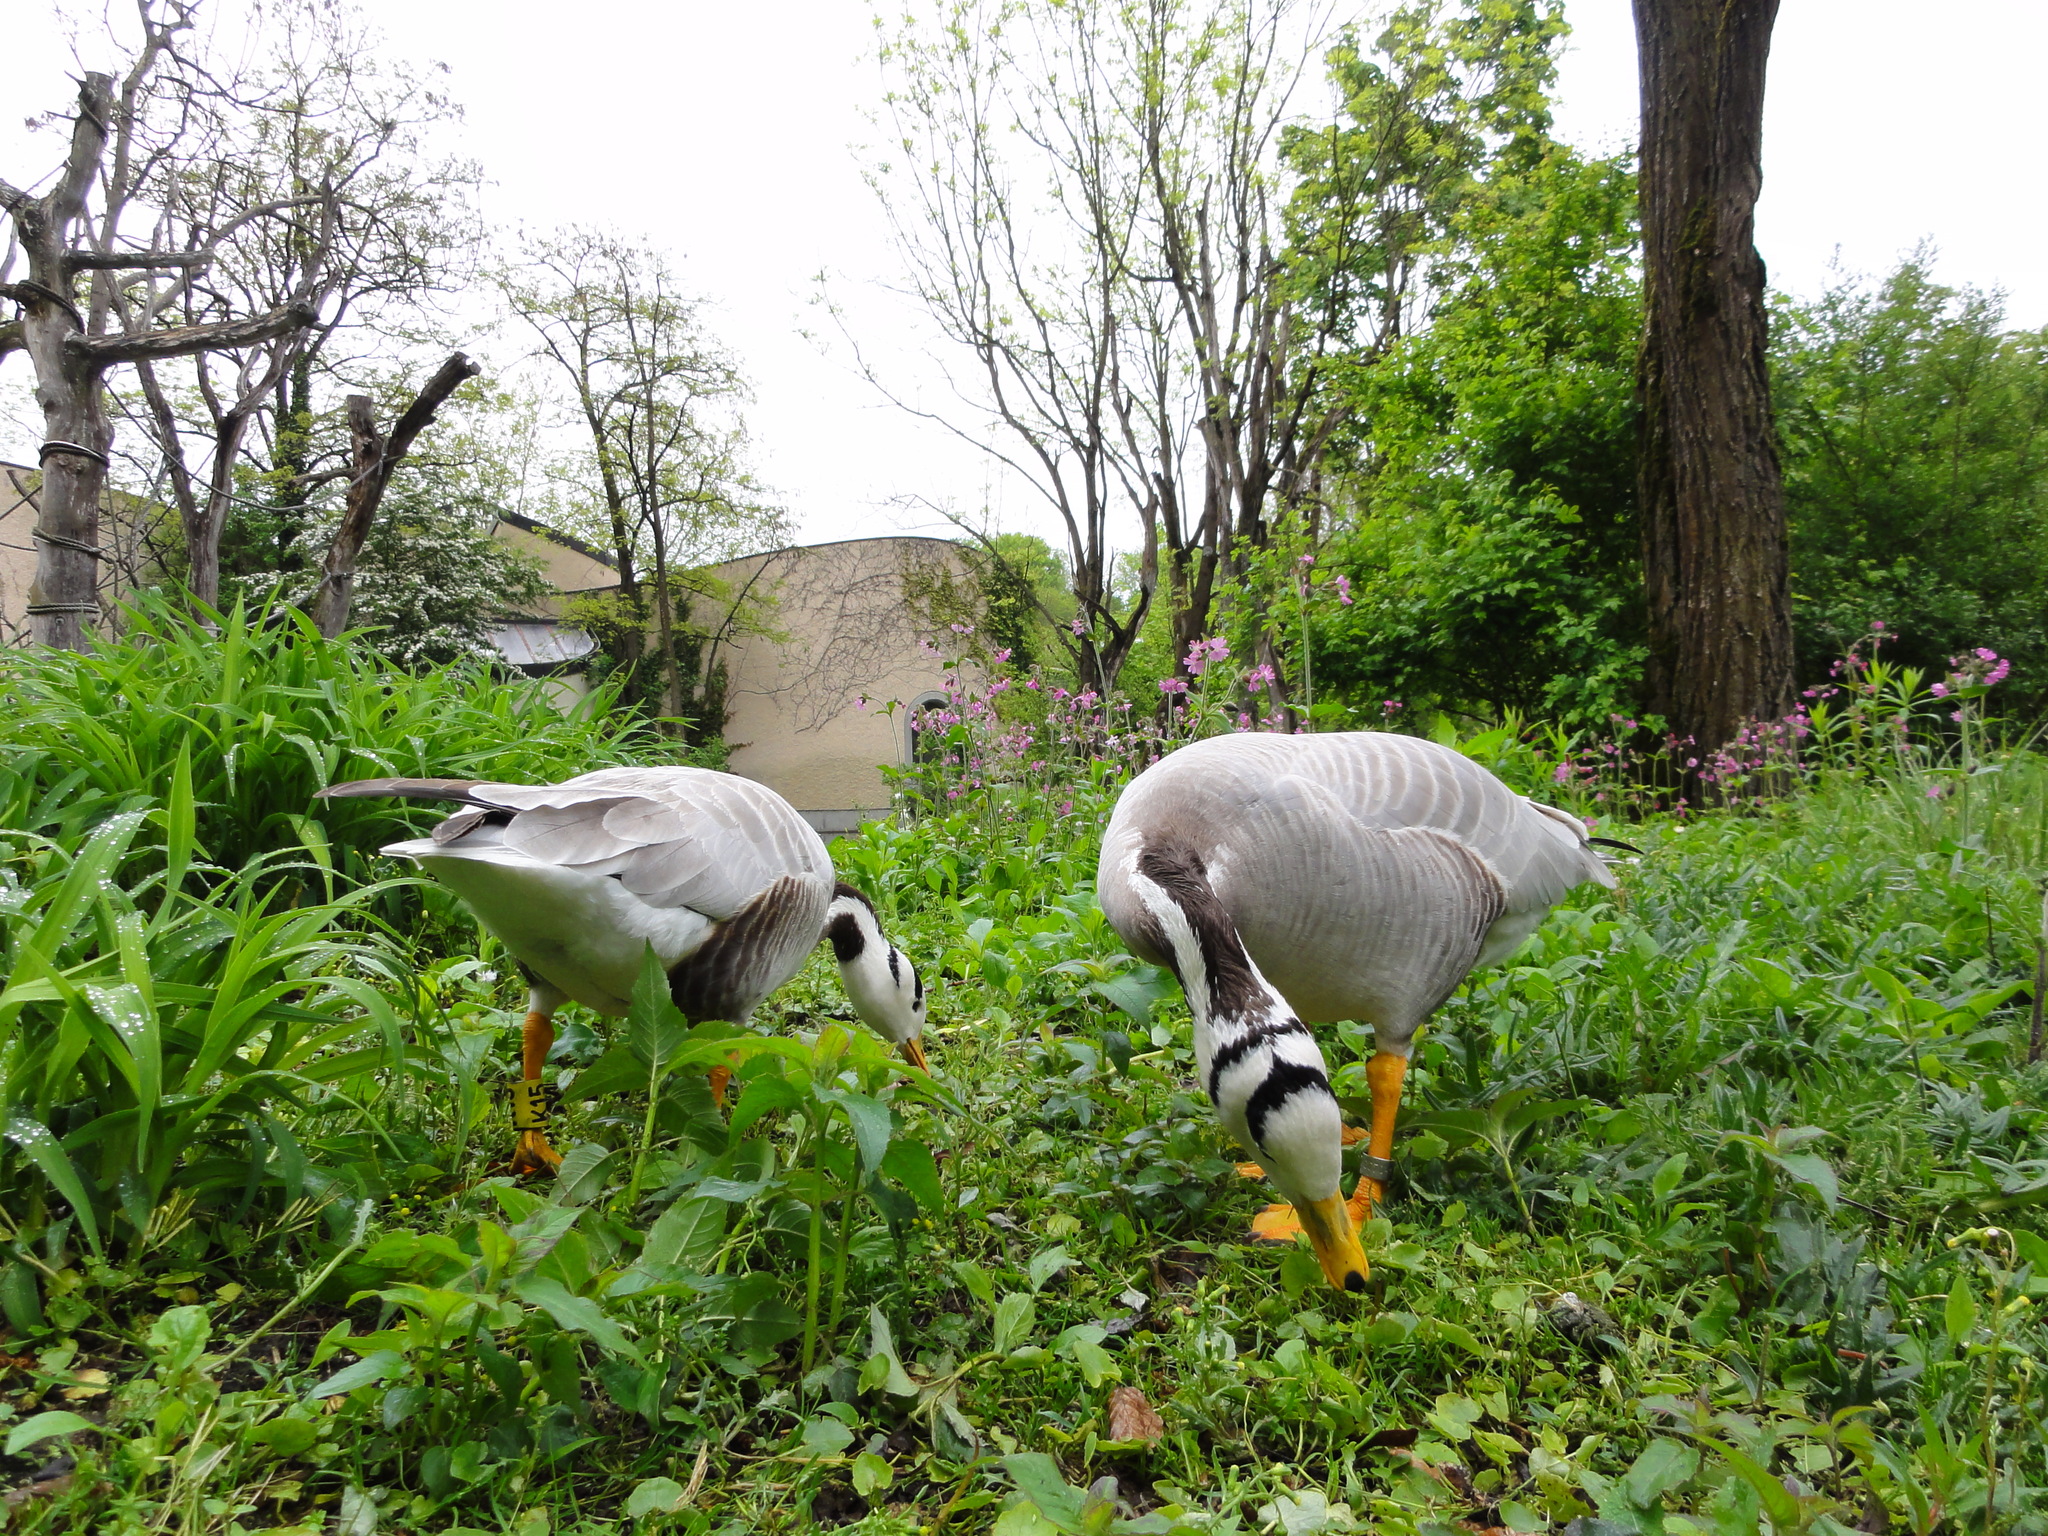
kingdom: Animalia
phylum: Chordata
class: Aves
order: Anseriformes
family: Anatidae
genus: Anser
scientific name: Anser indicus
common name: Bar-headed goose
